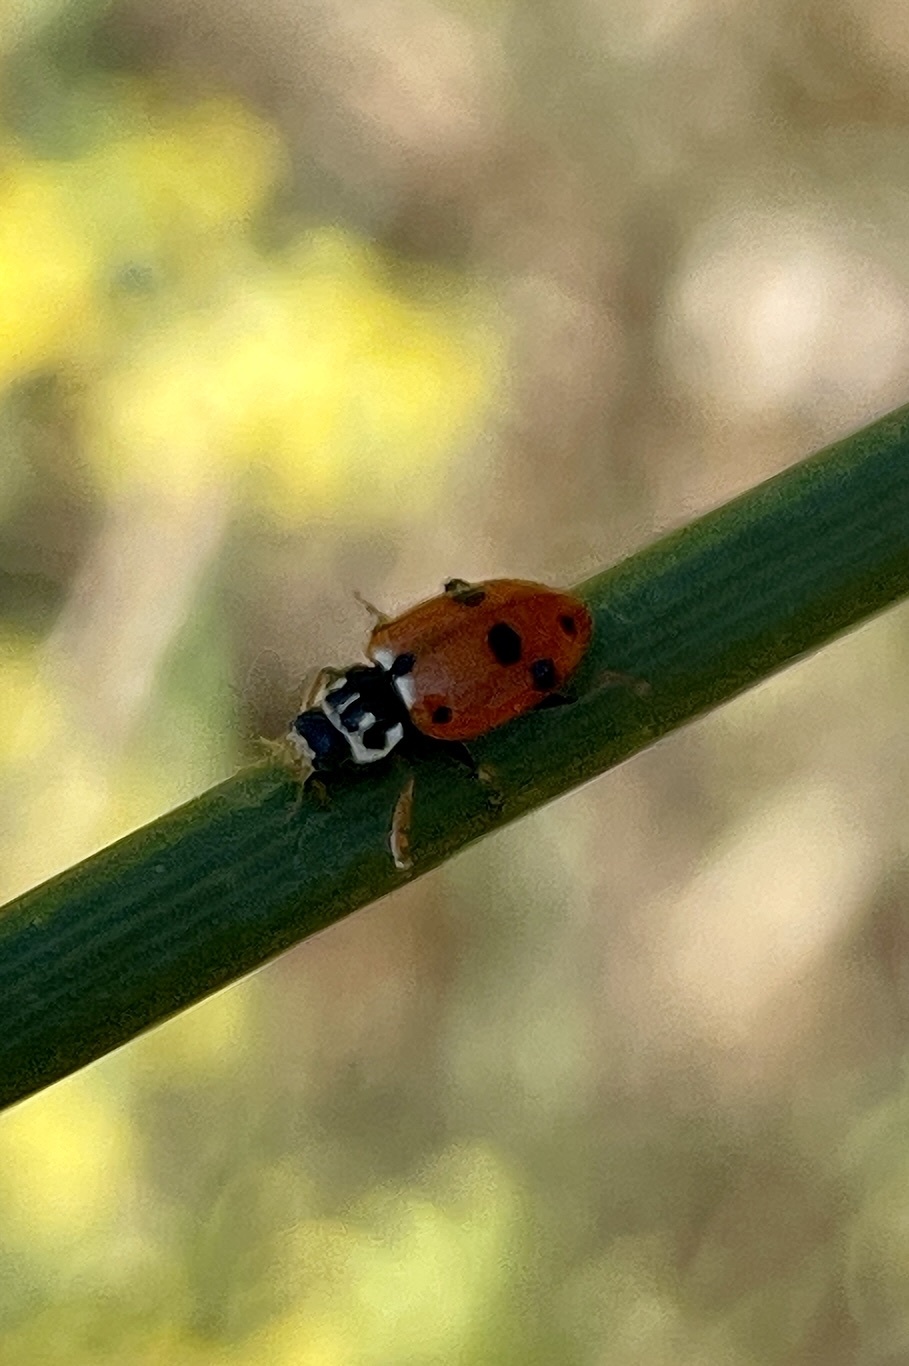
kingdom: Animalia
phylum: Arthropoda
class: Insecta
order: Coleoptera
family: Coccinellidae
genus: Hippodamia
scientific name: Hippodamia variegata
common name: Ladybird beetle
